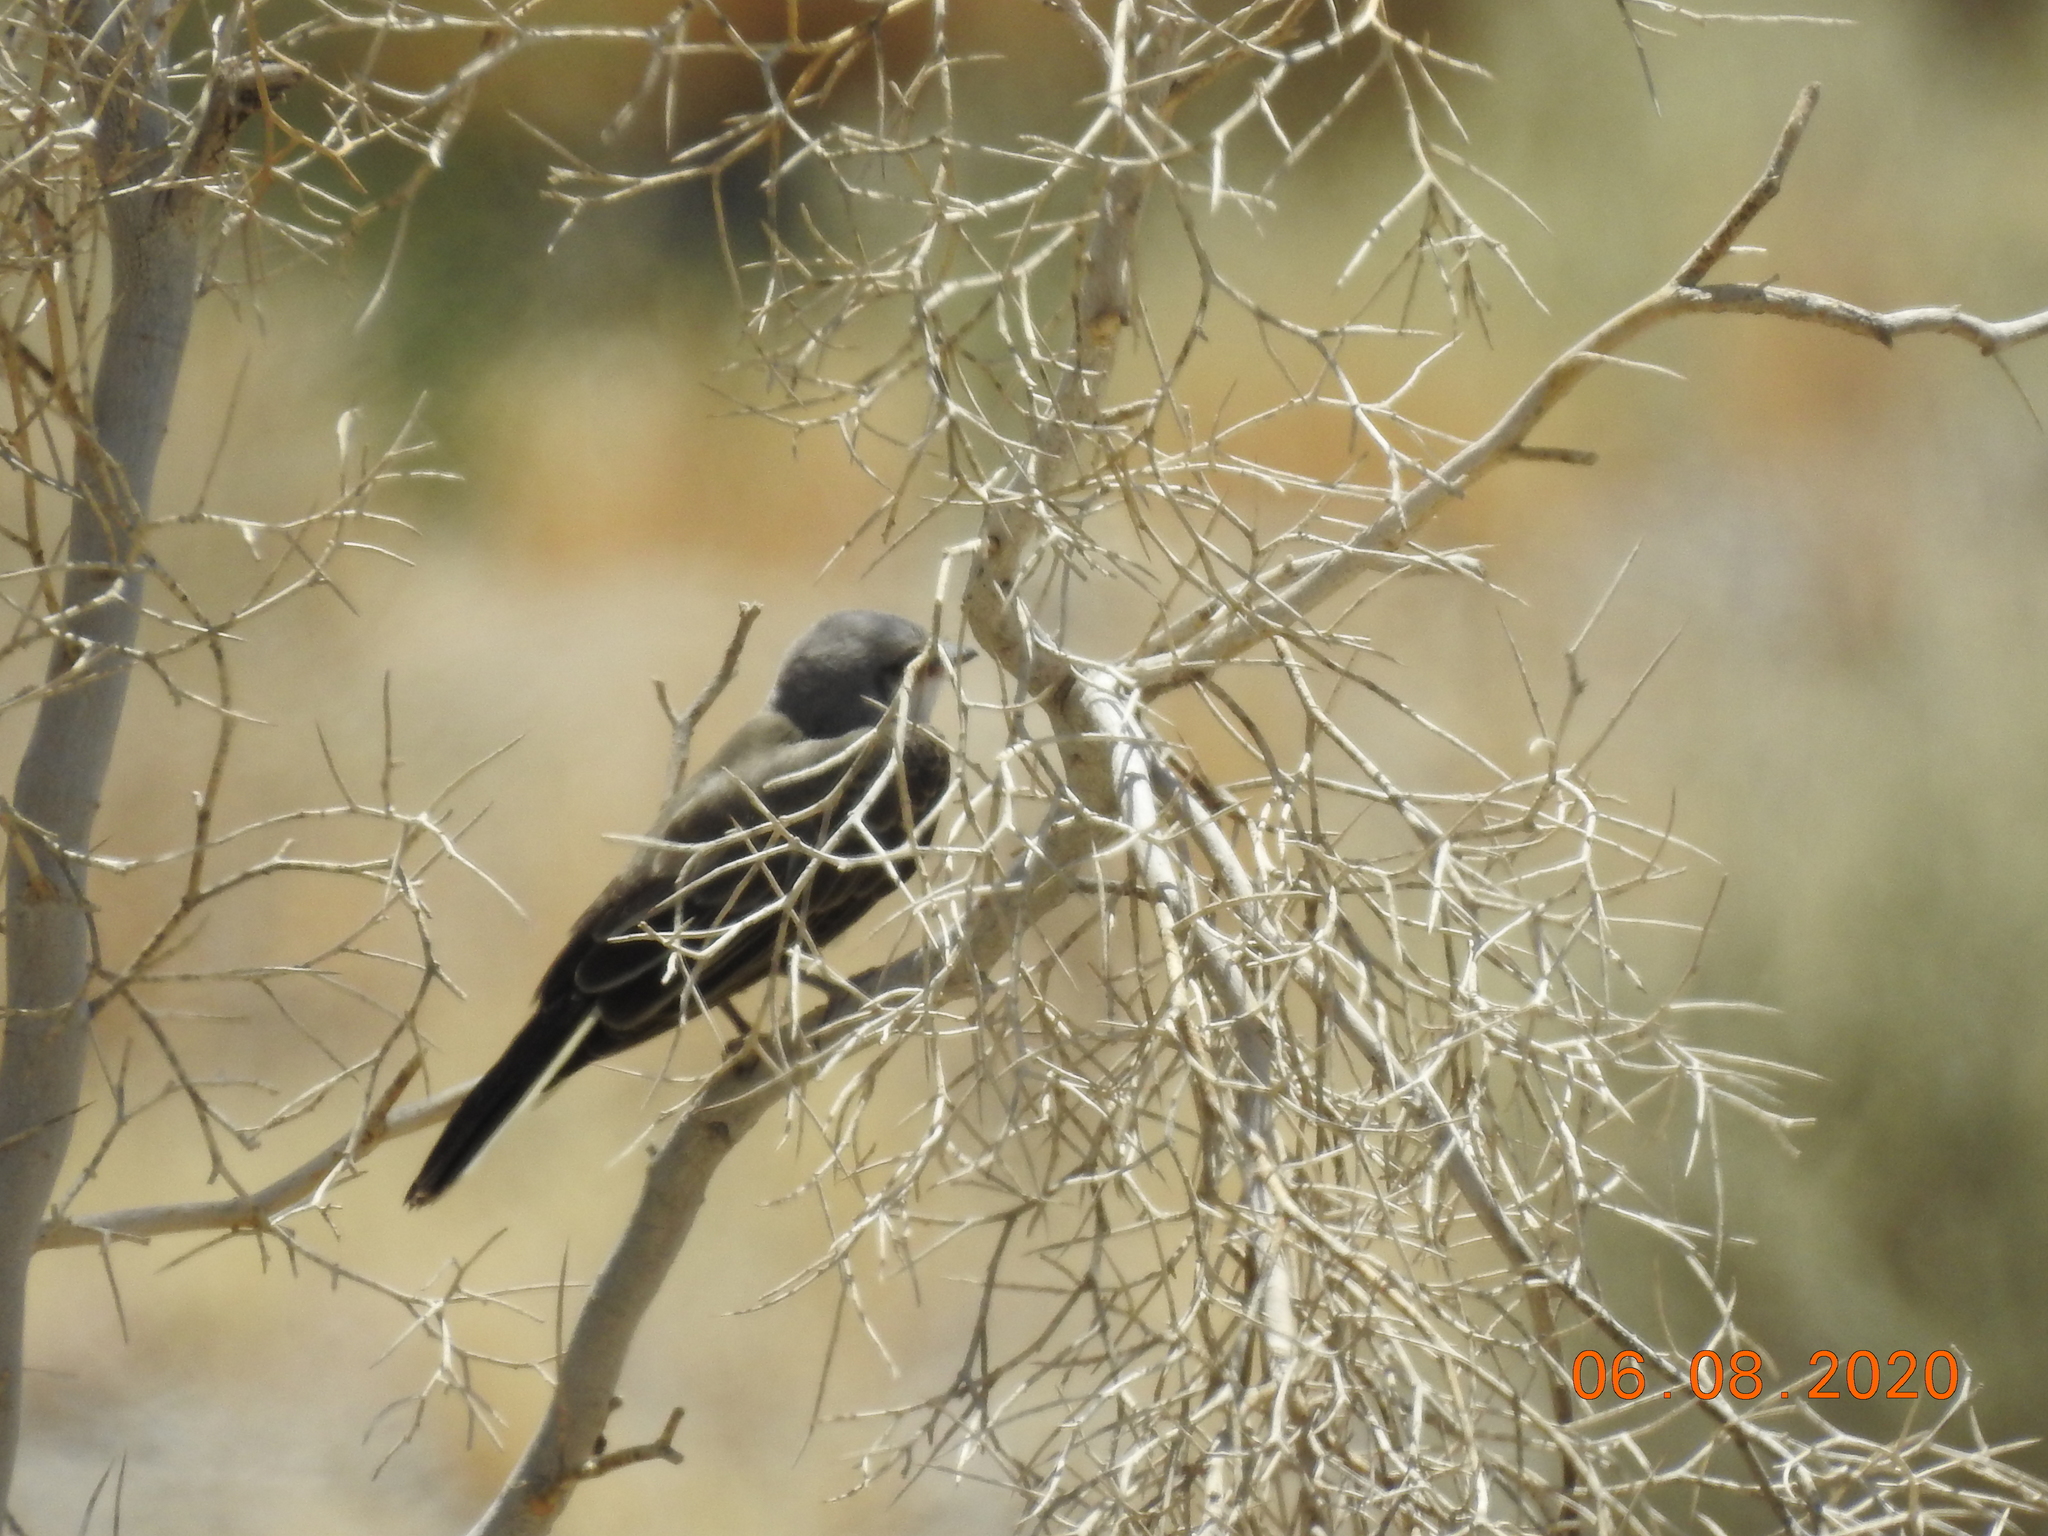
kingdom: Animalia
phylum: Chordata
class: Aves
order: Passeriformes
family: Tyrannidae
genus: Tyrannus
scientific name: Tyrannus verticalis
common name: Western kingbird
